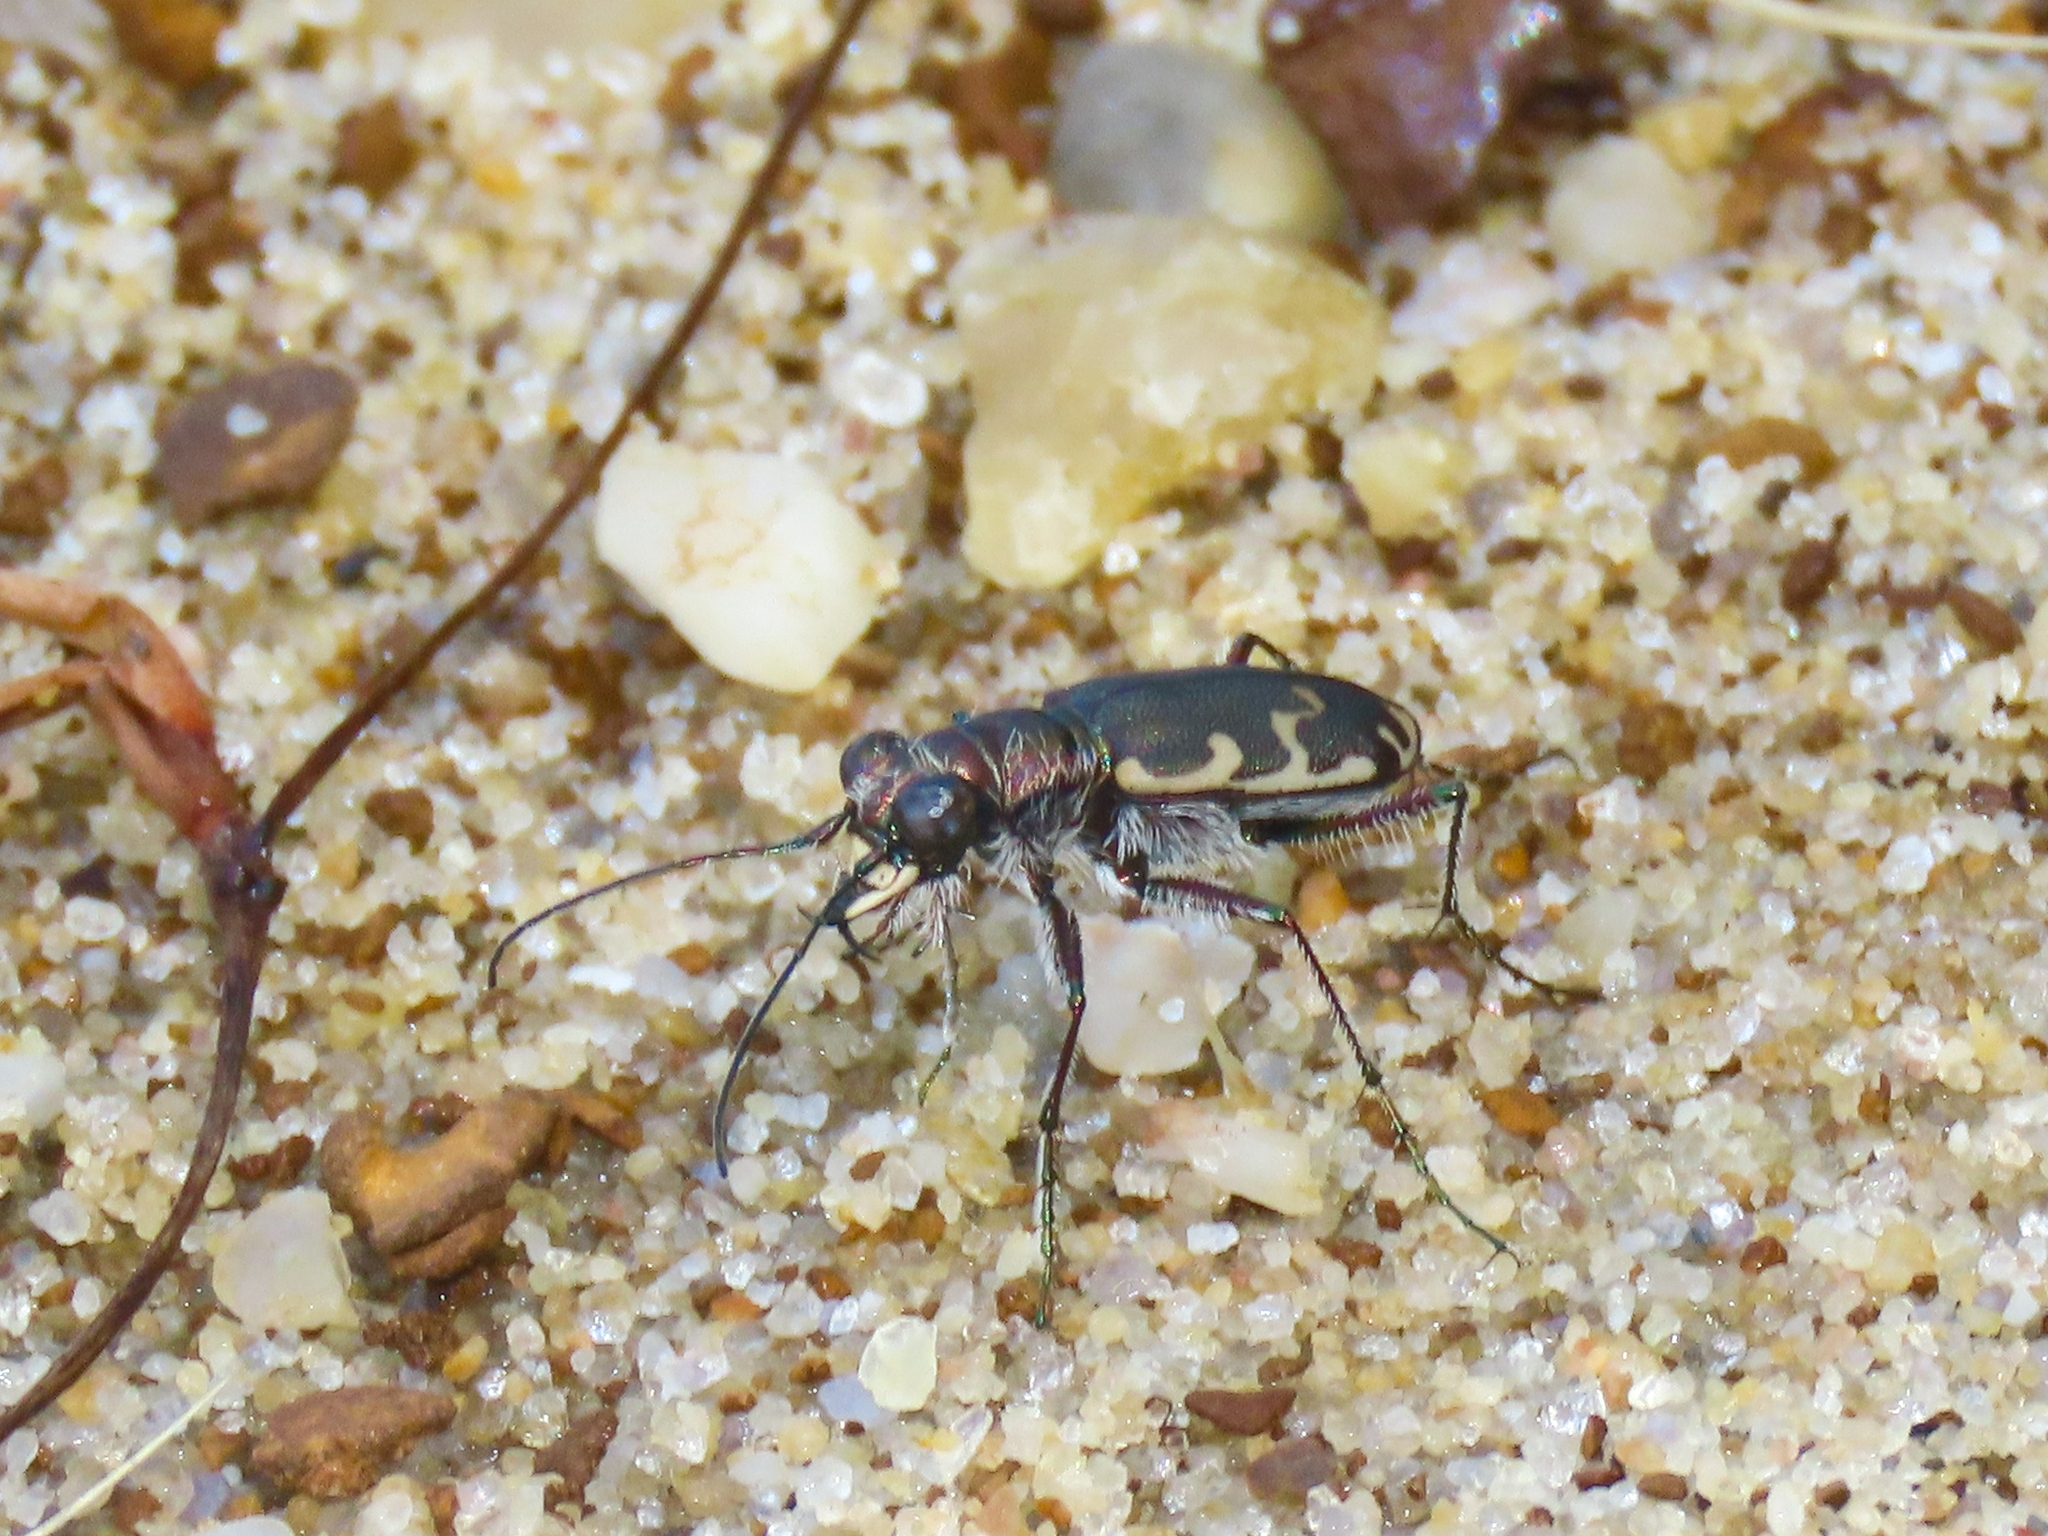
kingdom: Animalia
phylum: Arthropoda
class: Insecta
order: Coleoptera
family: Carabidae
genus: Cicindela
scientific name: Cicindela repanda
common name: Bronzed tiger beetle
